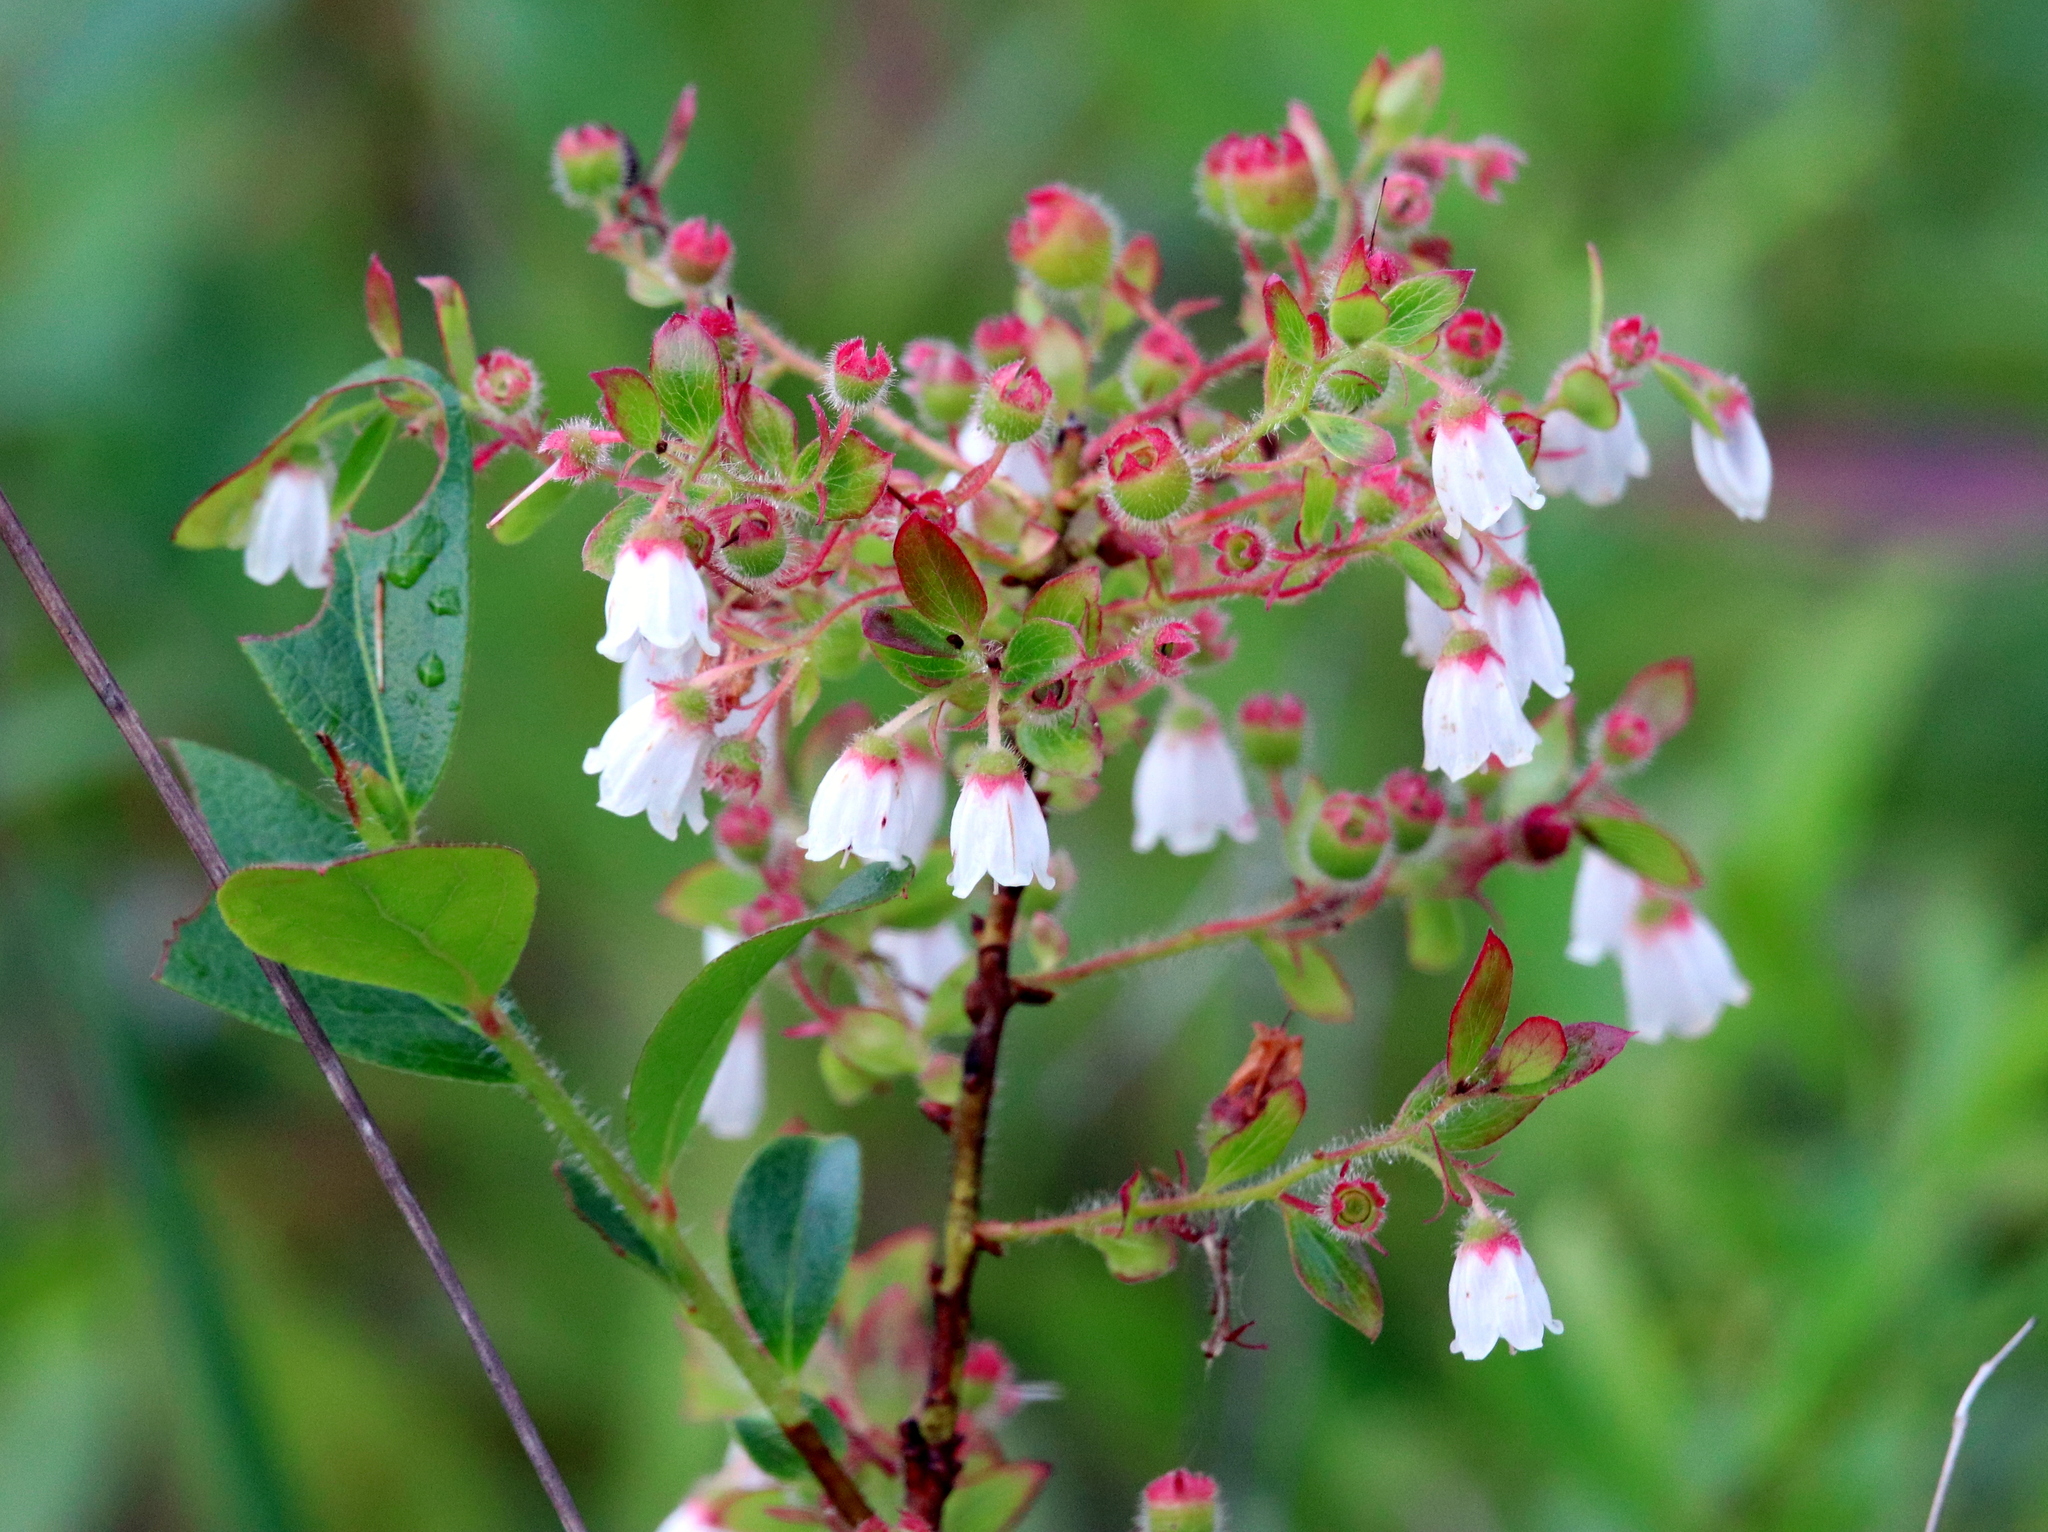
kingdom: Plantae
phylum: Tracheophyta
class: Magnoliopsida
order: Ericales
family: Ericaceae
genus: Gaylussacia
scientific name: Gaylussacia mosieri
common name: Hirsute huckleberry
